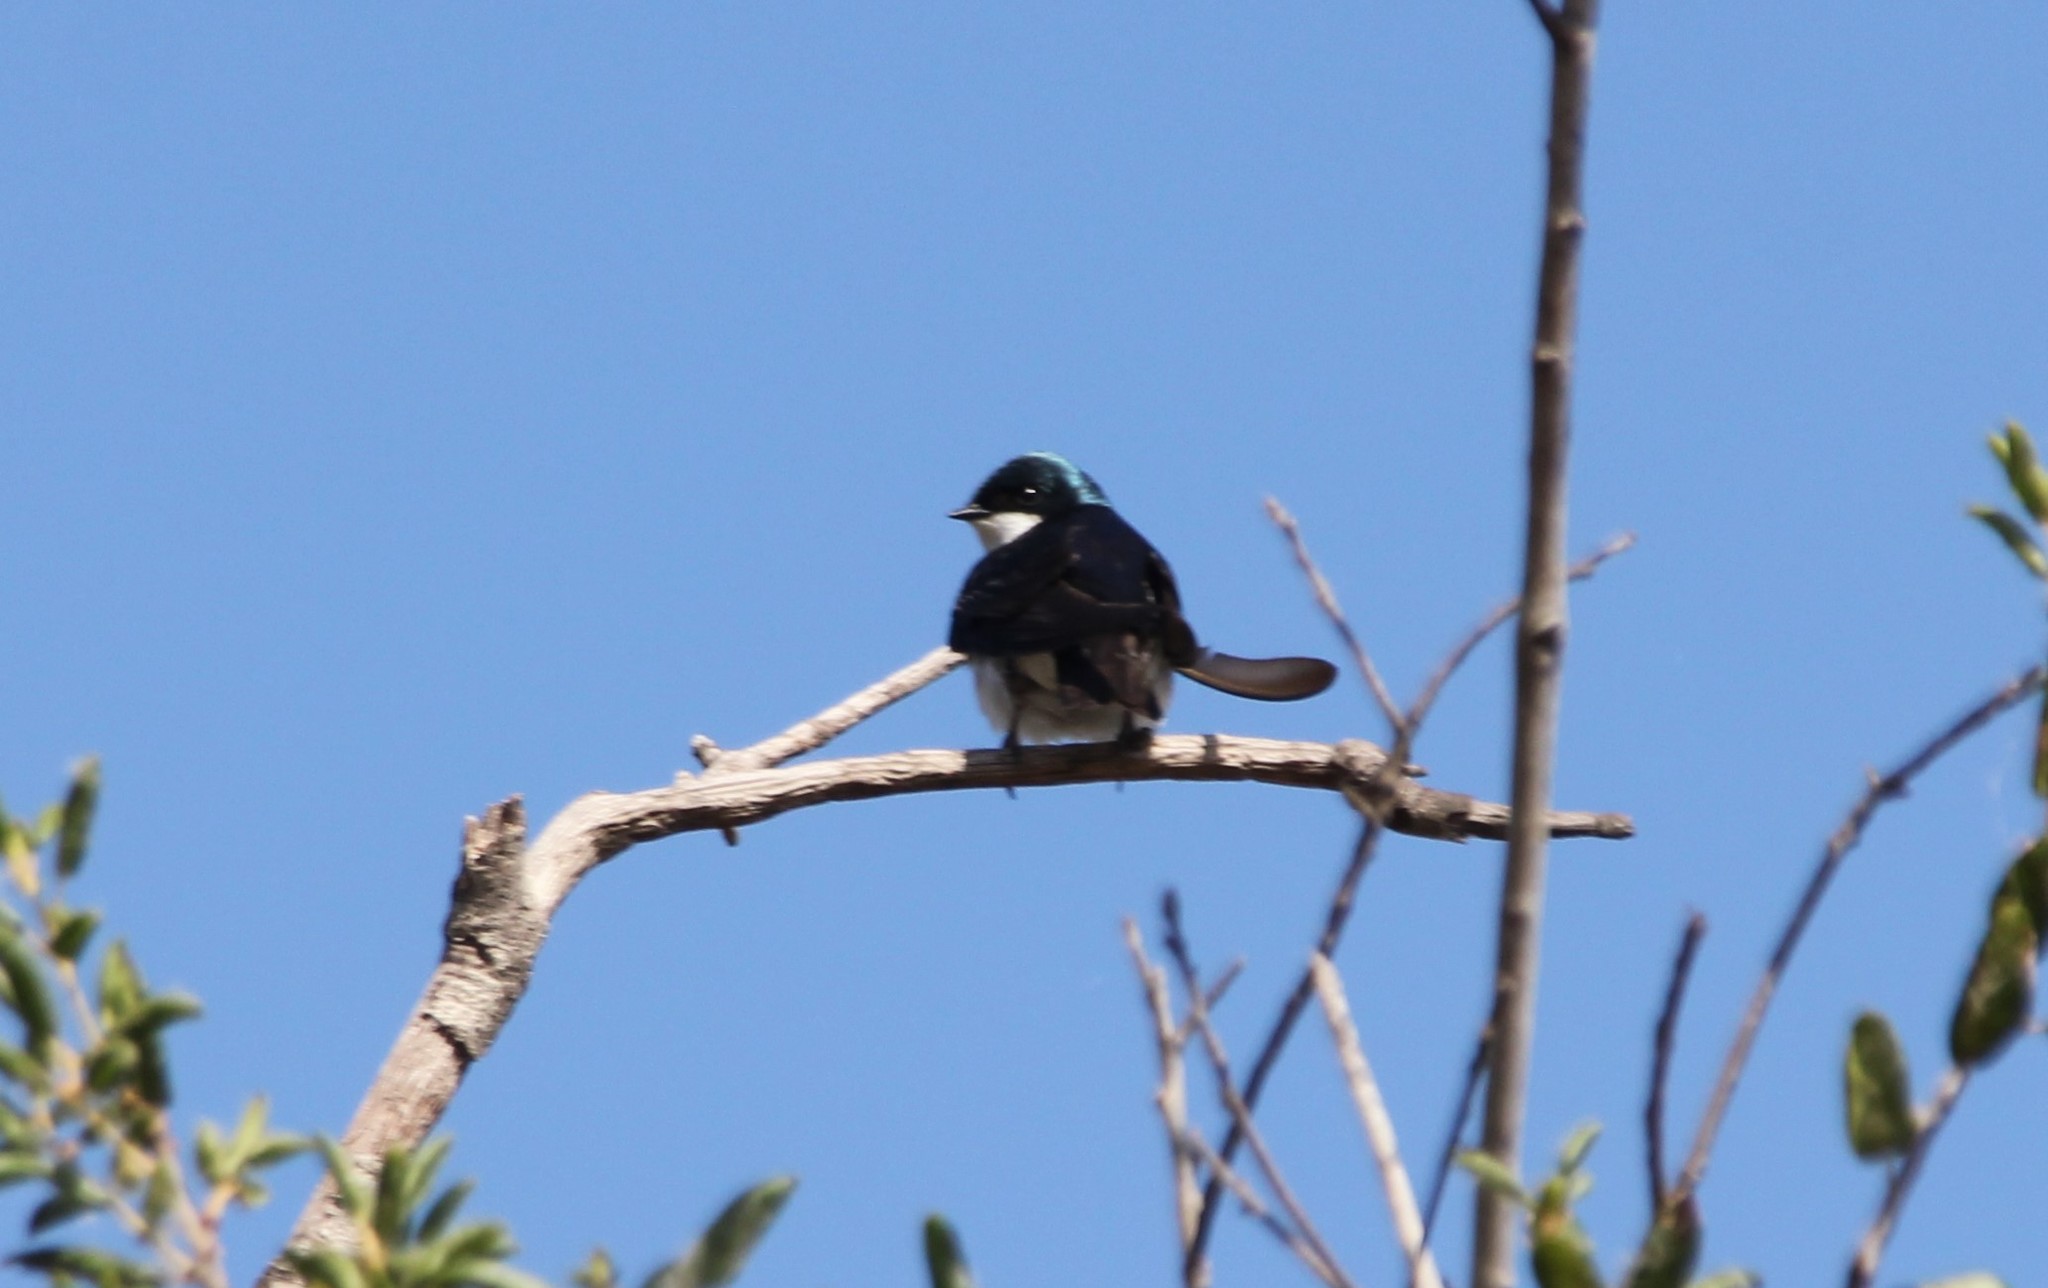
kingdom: Animalia
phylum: Chordata
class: Aves
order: Passeriformes
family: Hirundinidae
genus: Tachycineta
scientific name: Tachycineta bicolor
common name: Tree swallow
